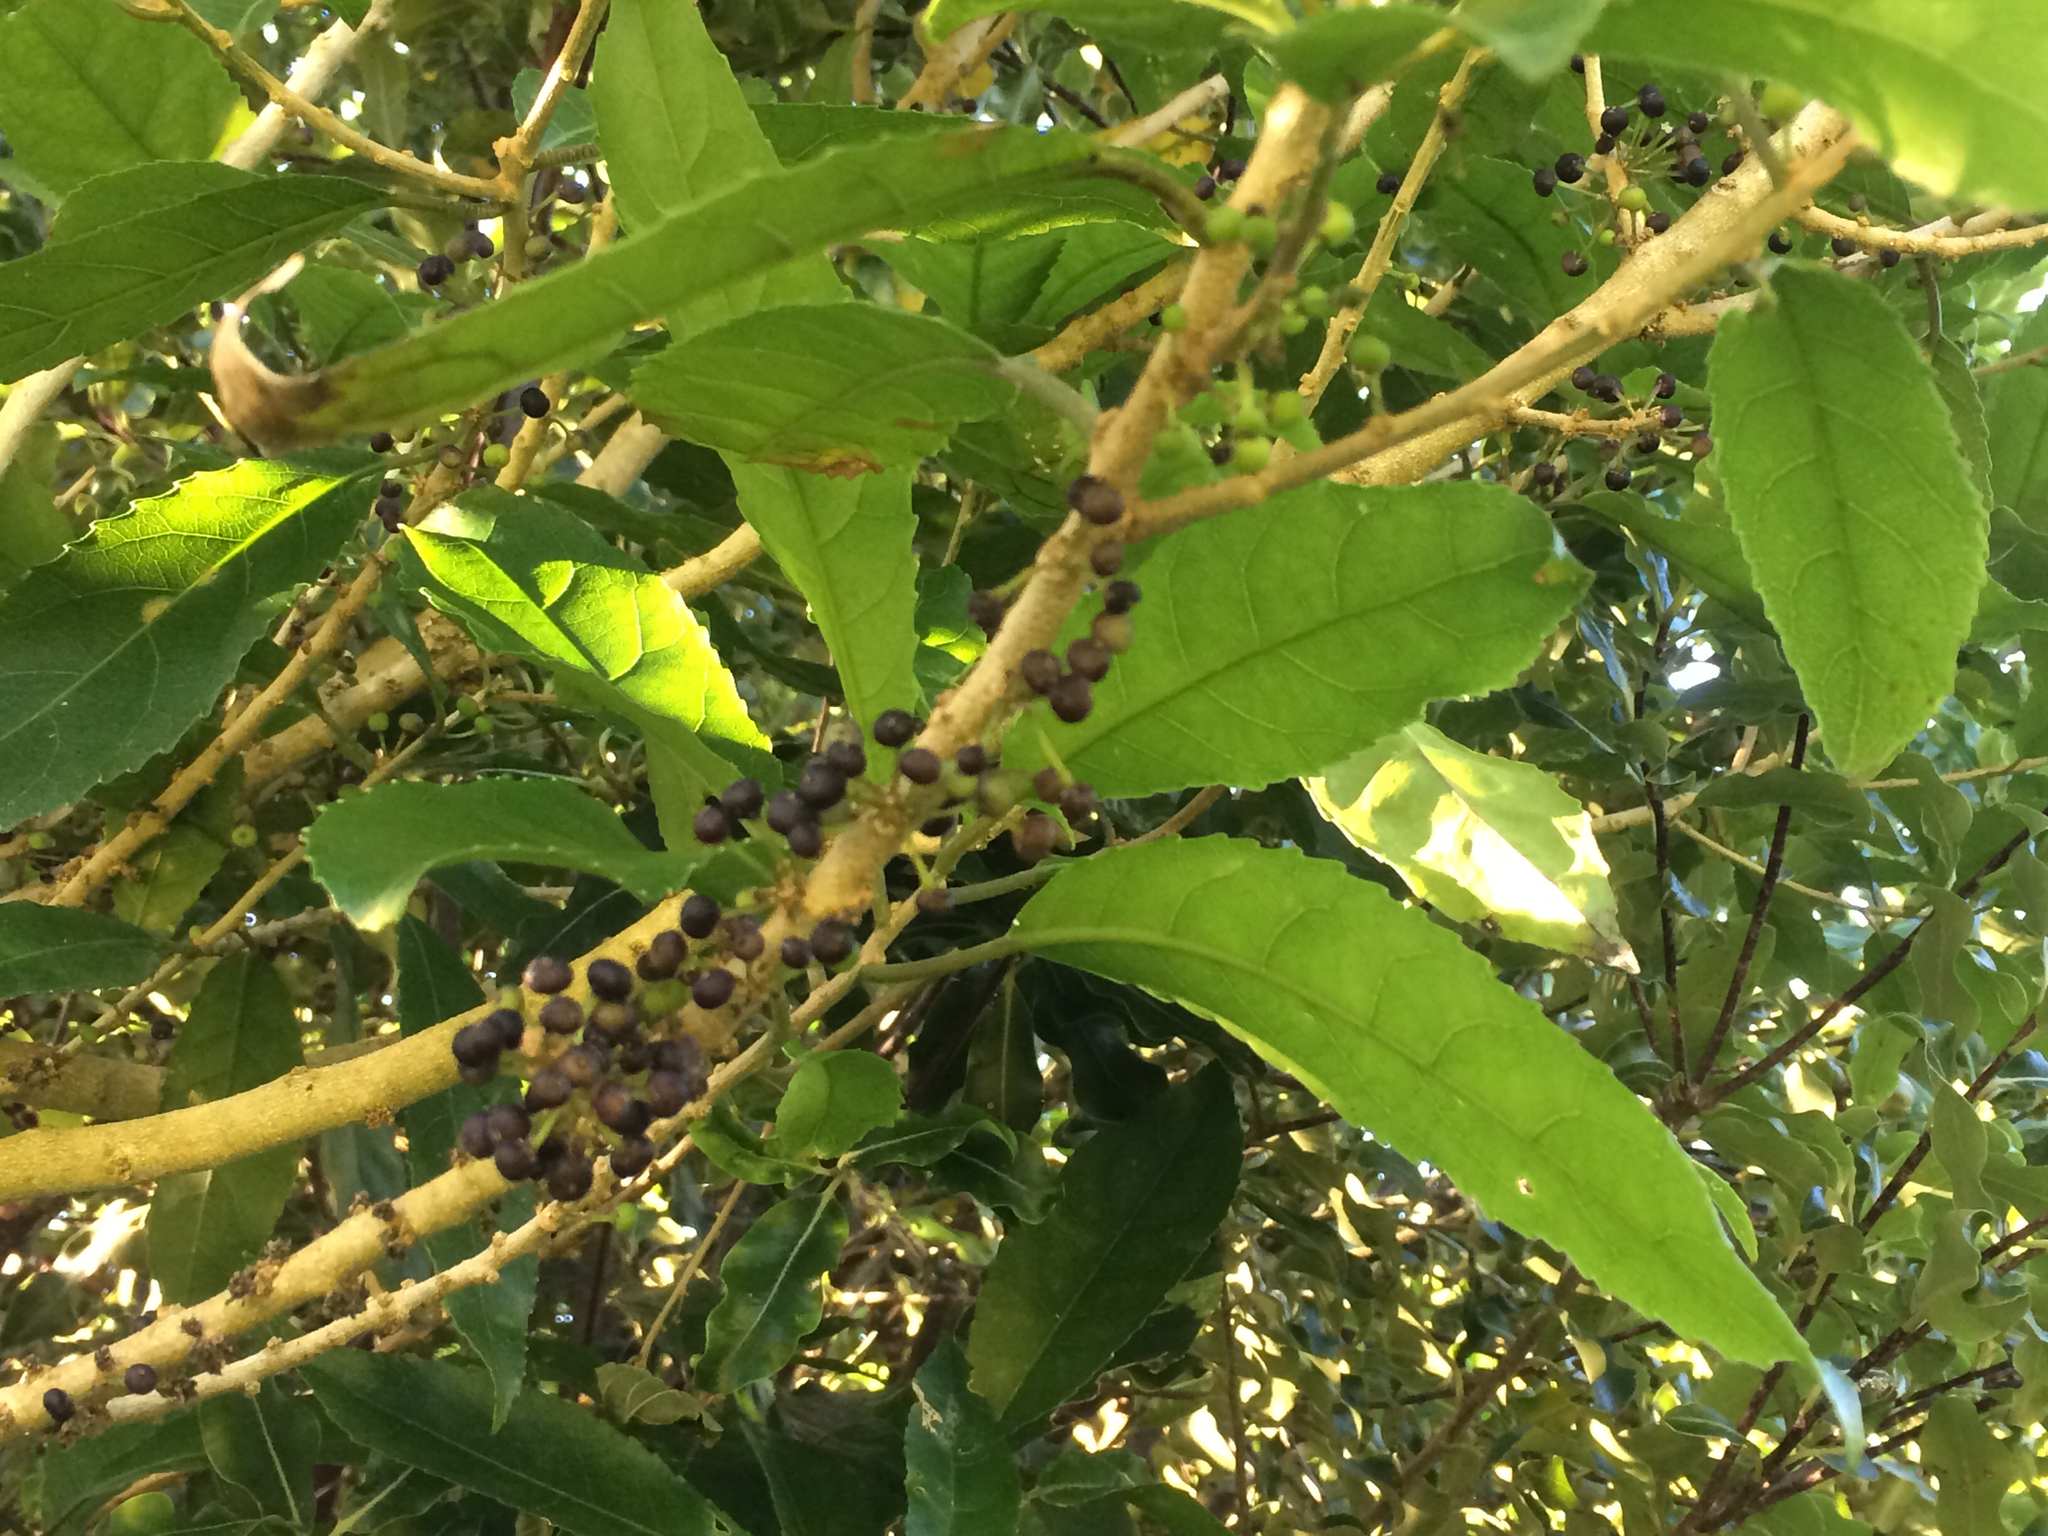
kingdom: Plantae
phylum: Tracheophyta
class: Magnoliopsida
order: Malpighiales
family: Violaceae
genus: Melicytus
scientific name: Melicytus ramiflorus
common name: Mahoe
